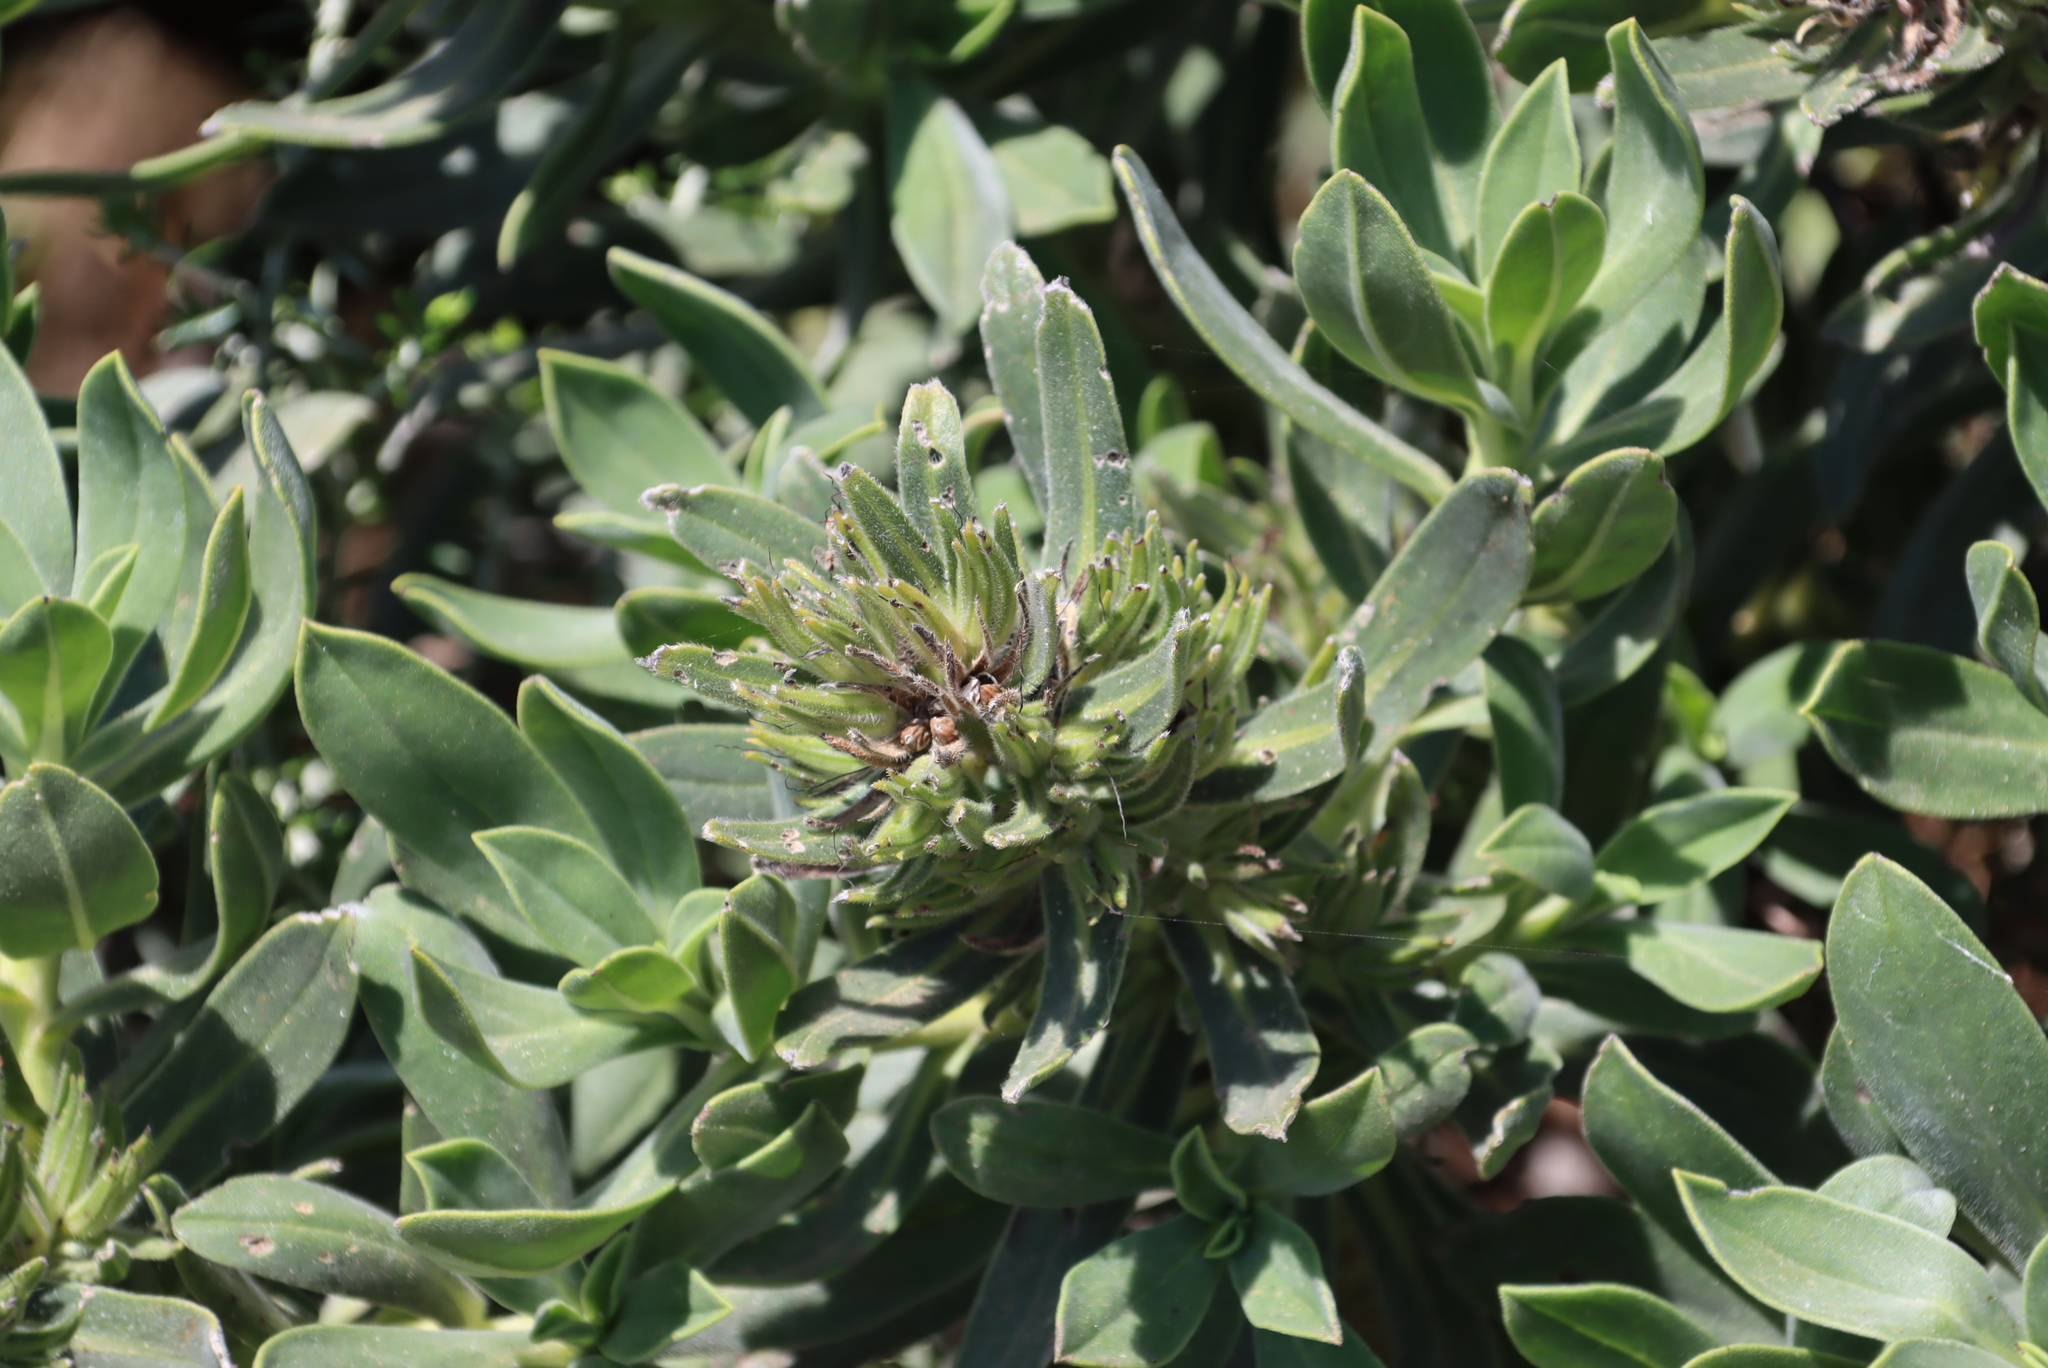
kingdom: Plantae
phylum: Tracheophyta
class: Magnoliopsida
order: Boraginales
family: Boraginaceae
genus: Lobostemon
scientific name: Lobostemon montanus
